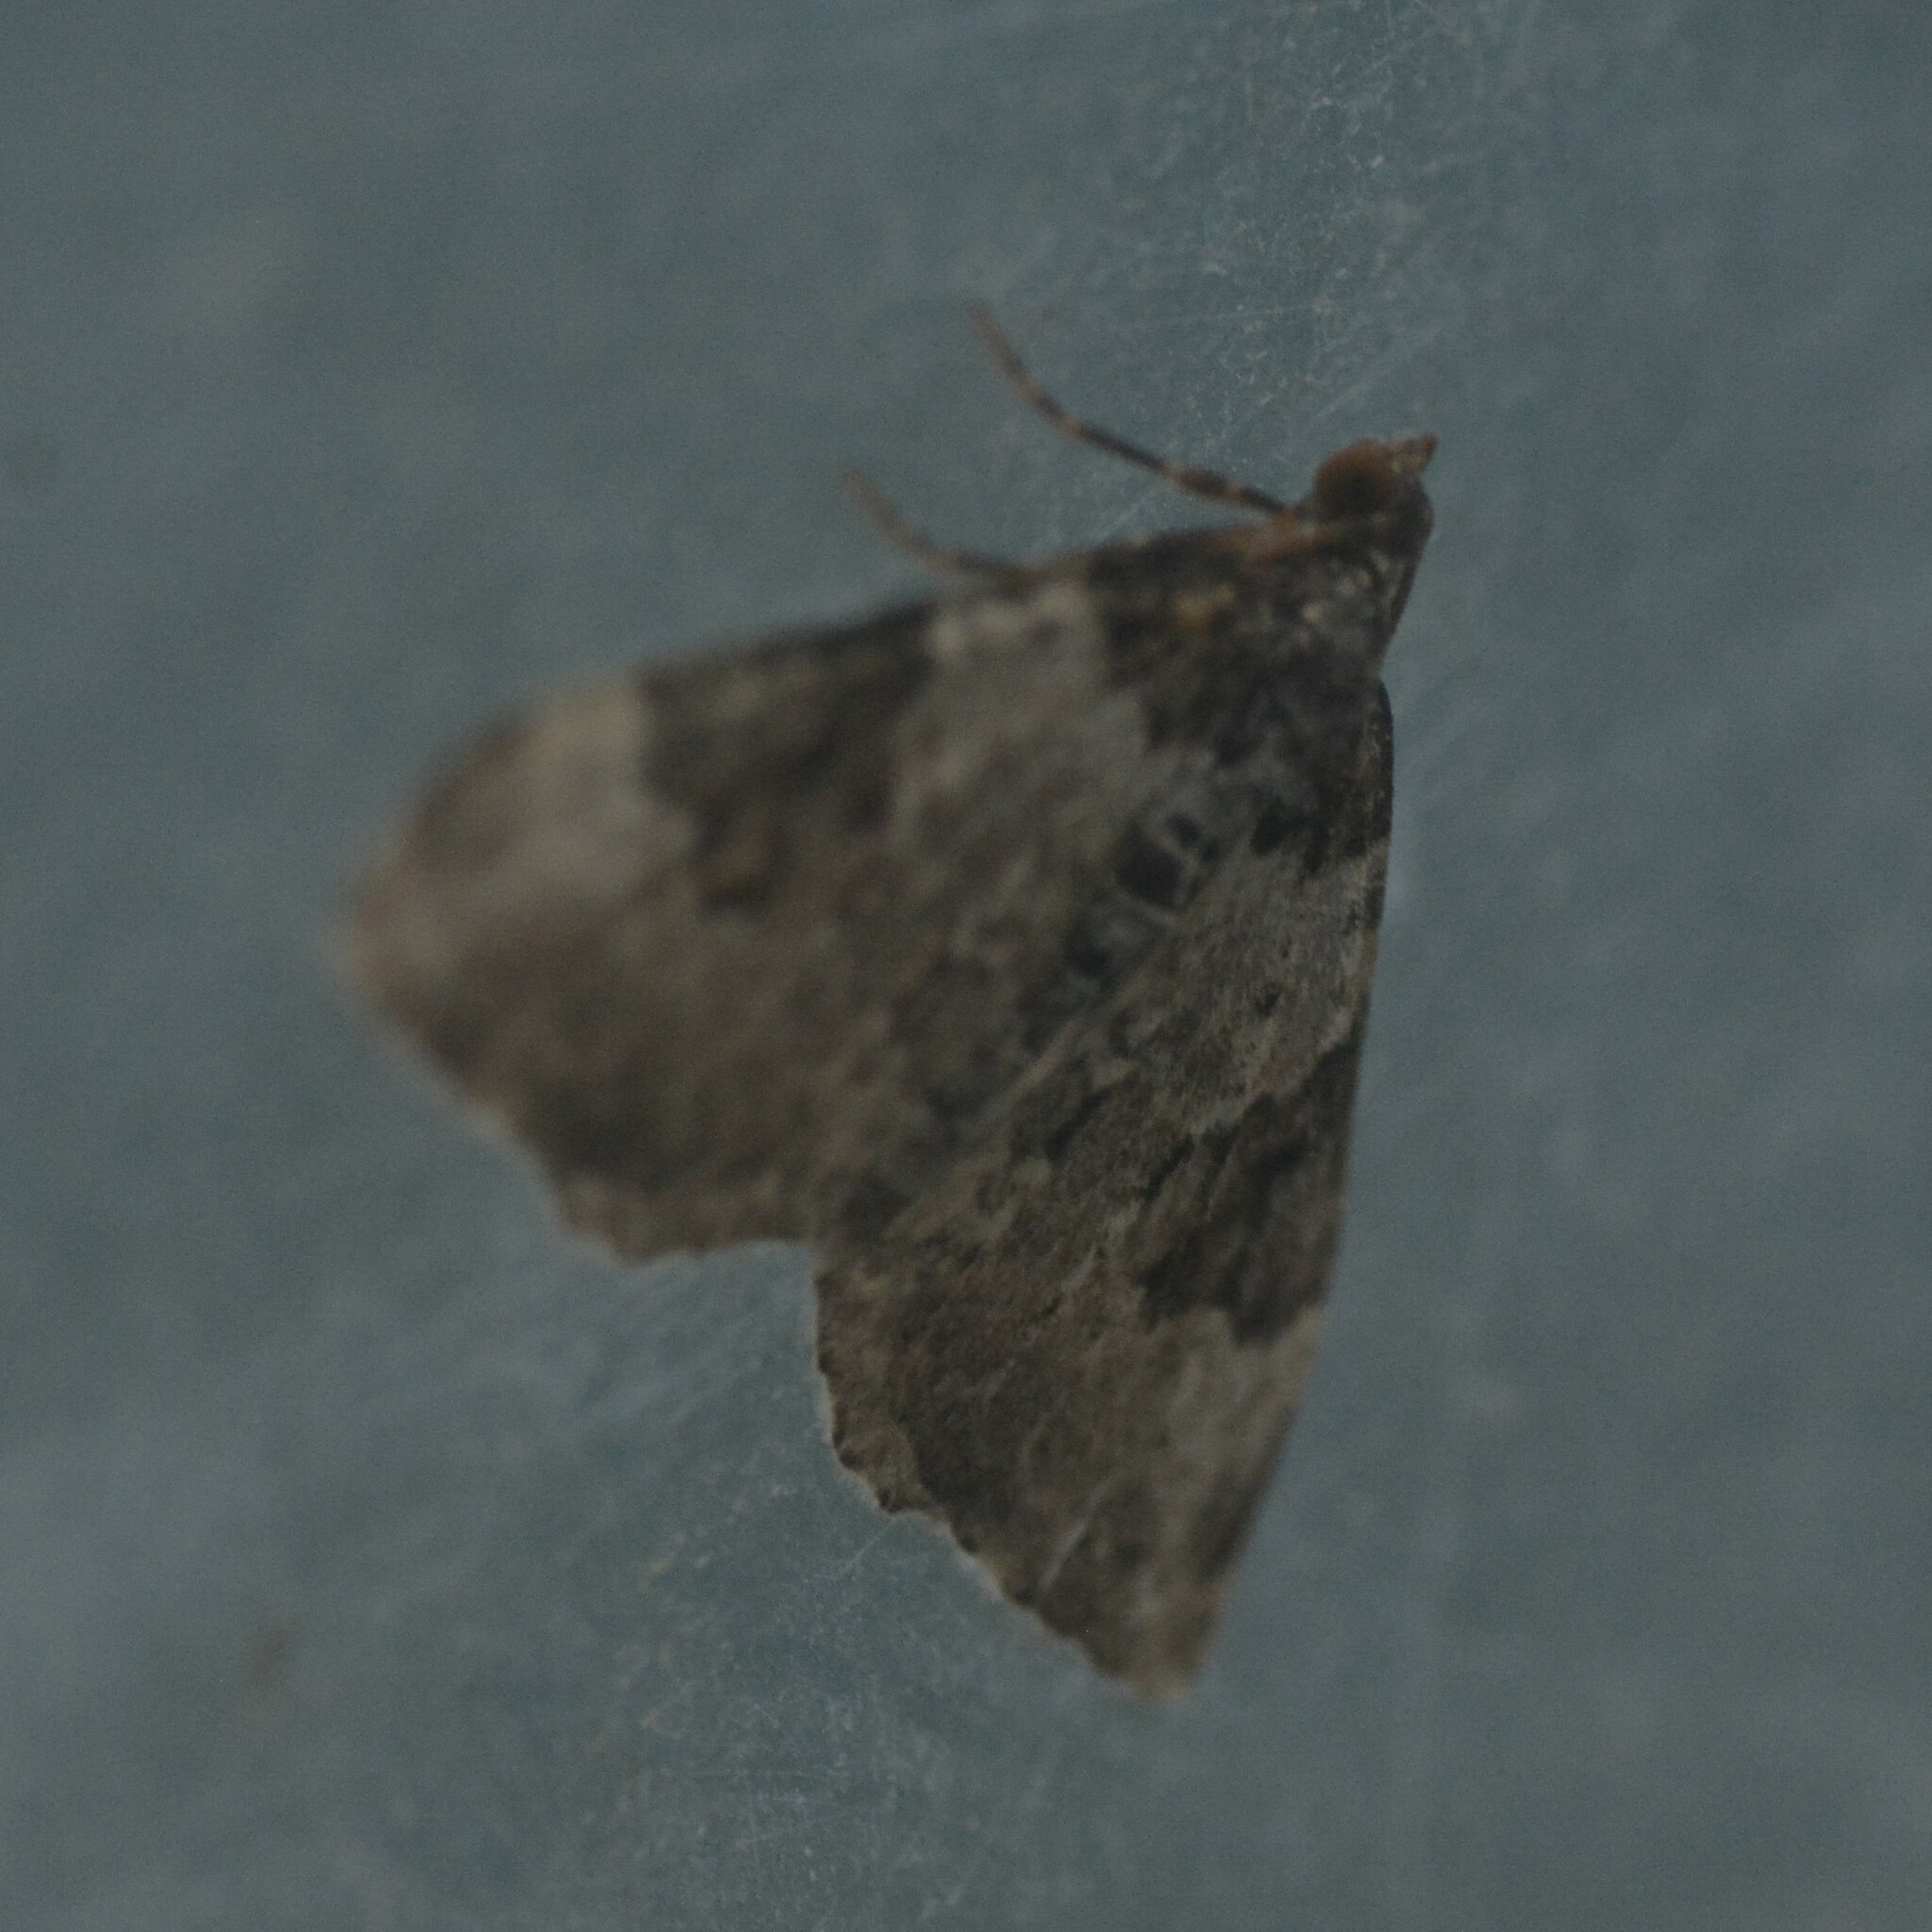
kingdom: Animalia
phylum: Arthropoda
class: Insecta
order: Lepidoptera
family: Geometridae
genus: Xanthorhoe
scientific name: Xanthorhoe fluctuata
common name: Garden carpet
